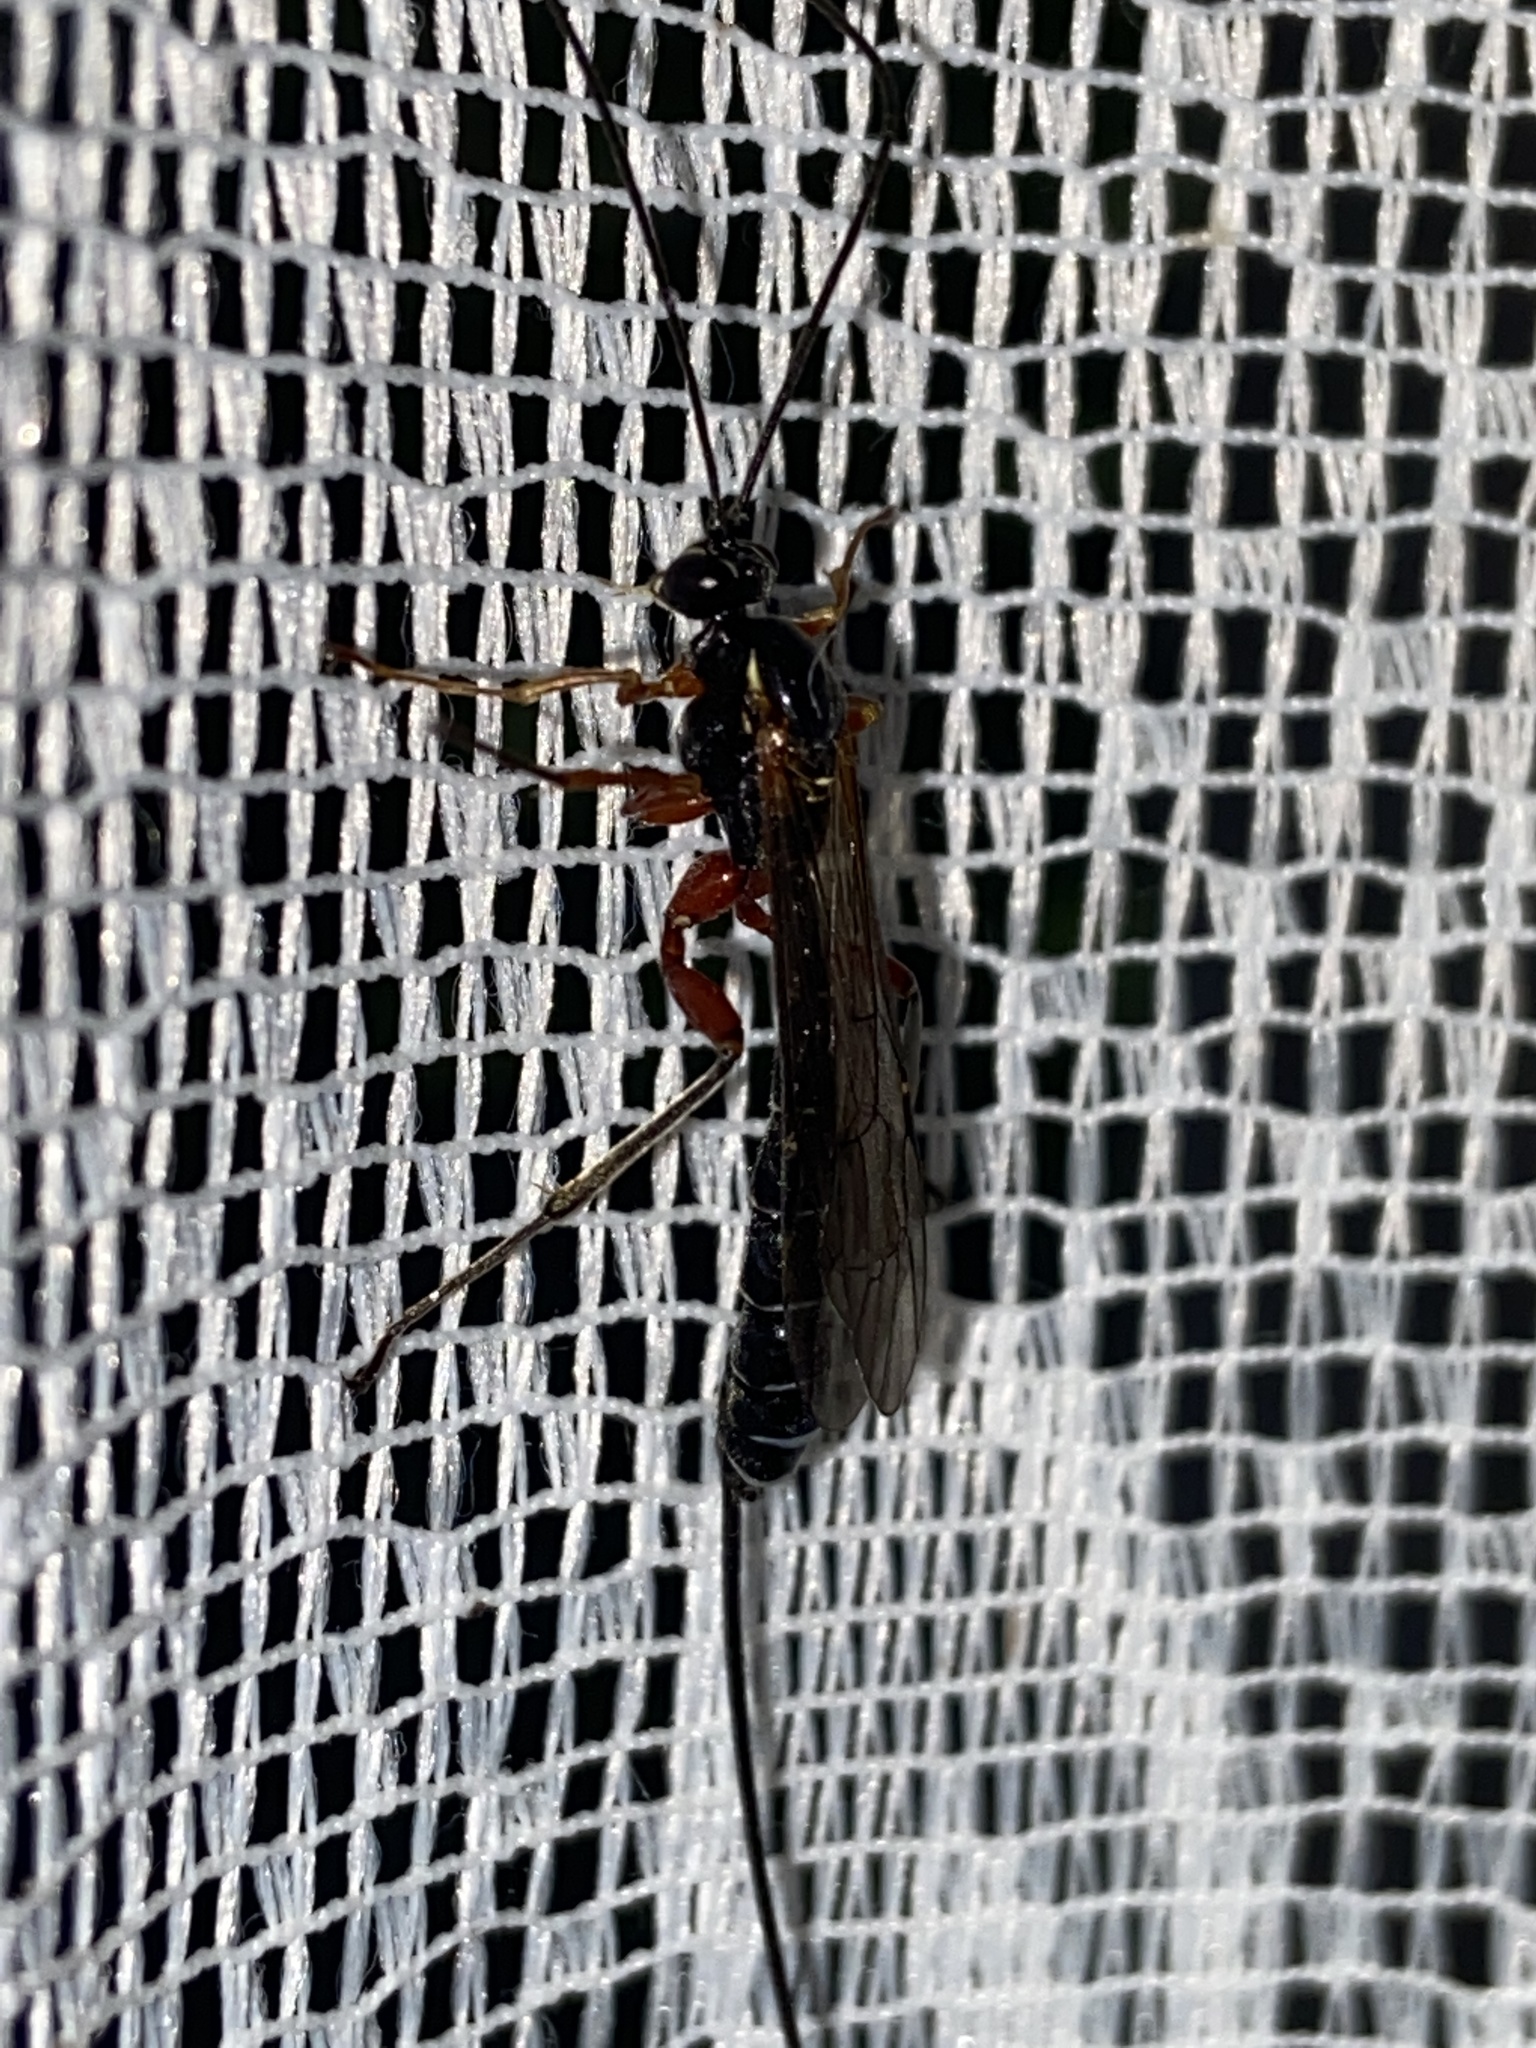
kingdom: Animalia
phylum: Arthropoda
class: Insecta
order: Hymenoptera
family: Ichneumonidae
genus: Perithous
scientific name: Perithous albicinctus
